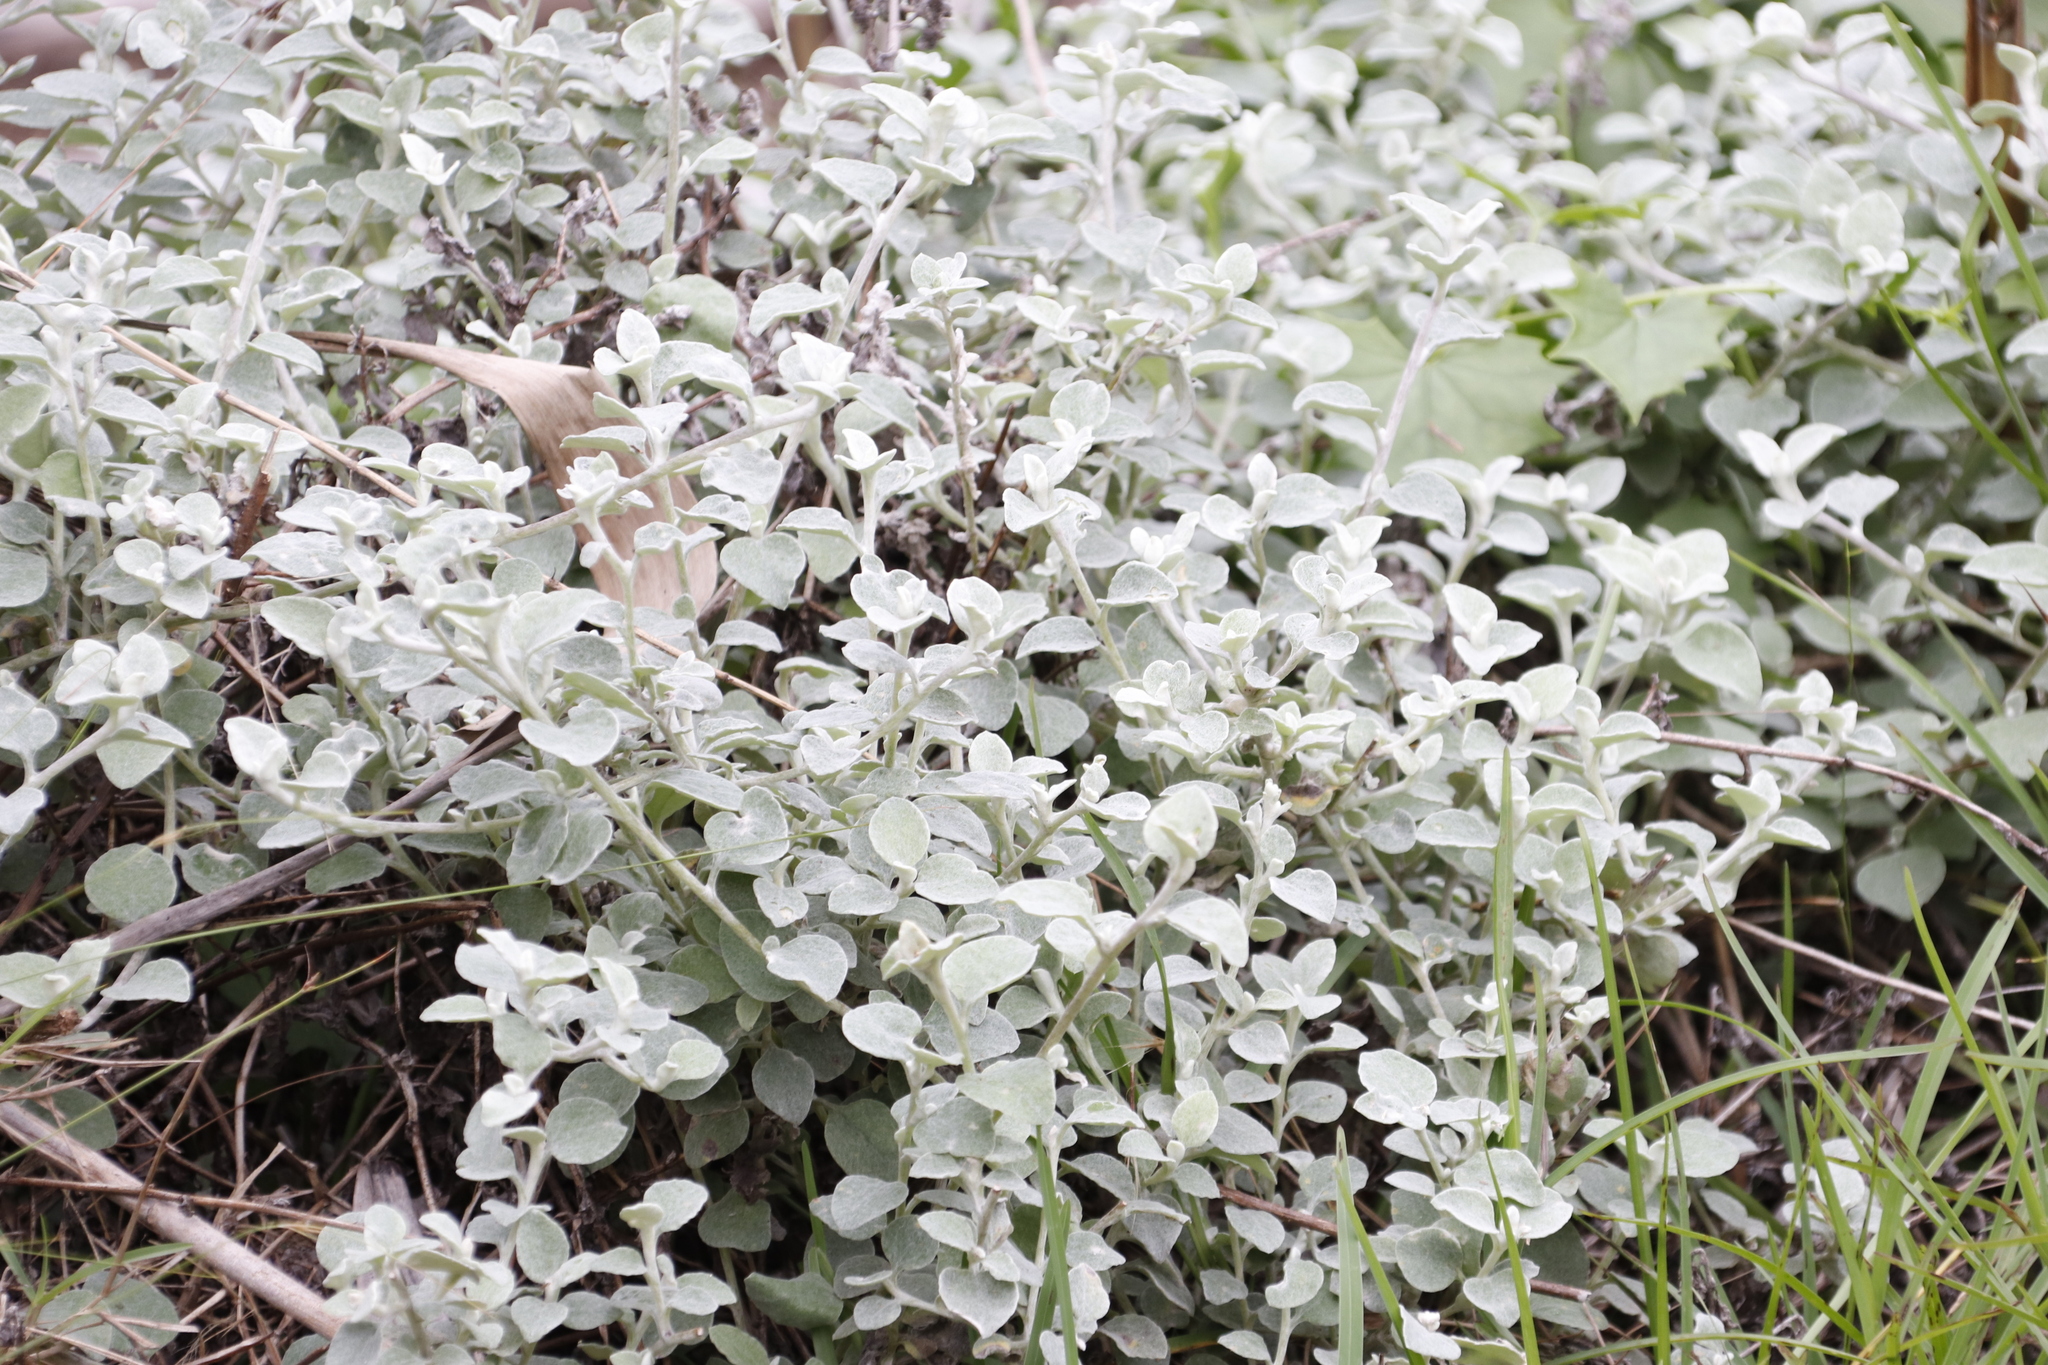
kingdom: Plantae
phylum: Tracheophyta
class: Magnoliopsida
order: Asterales
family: Asteraceae
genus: Helichrysum
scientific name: Helichrysum petiolare
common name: Licorice-plant
